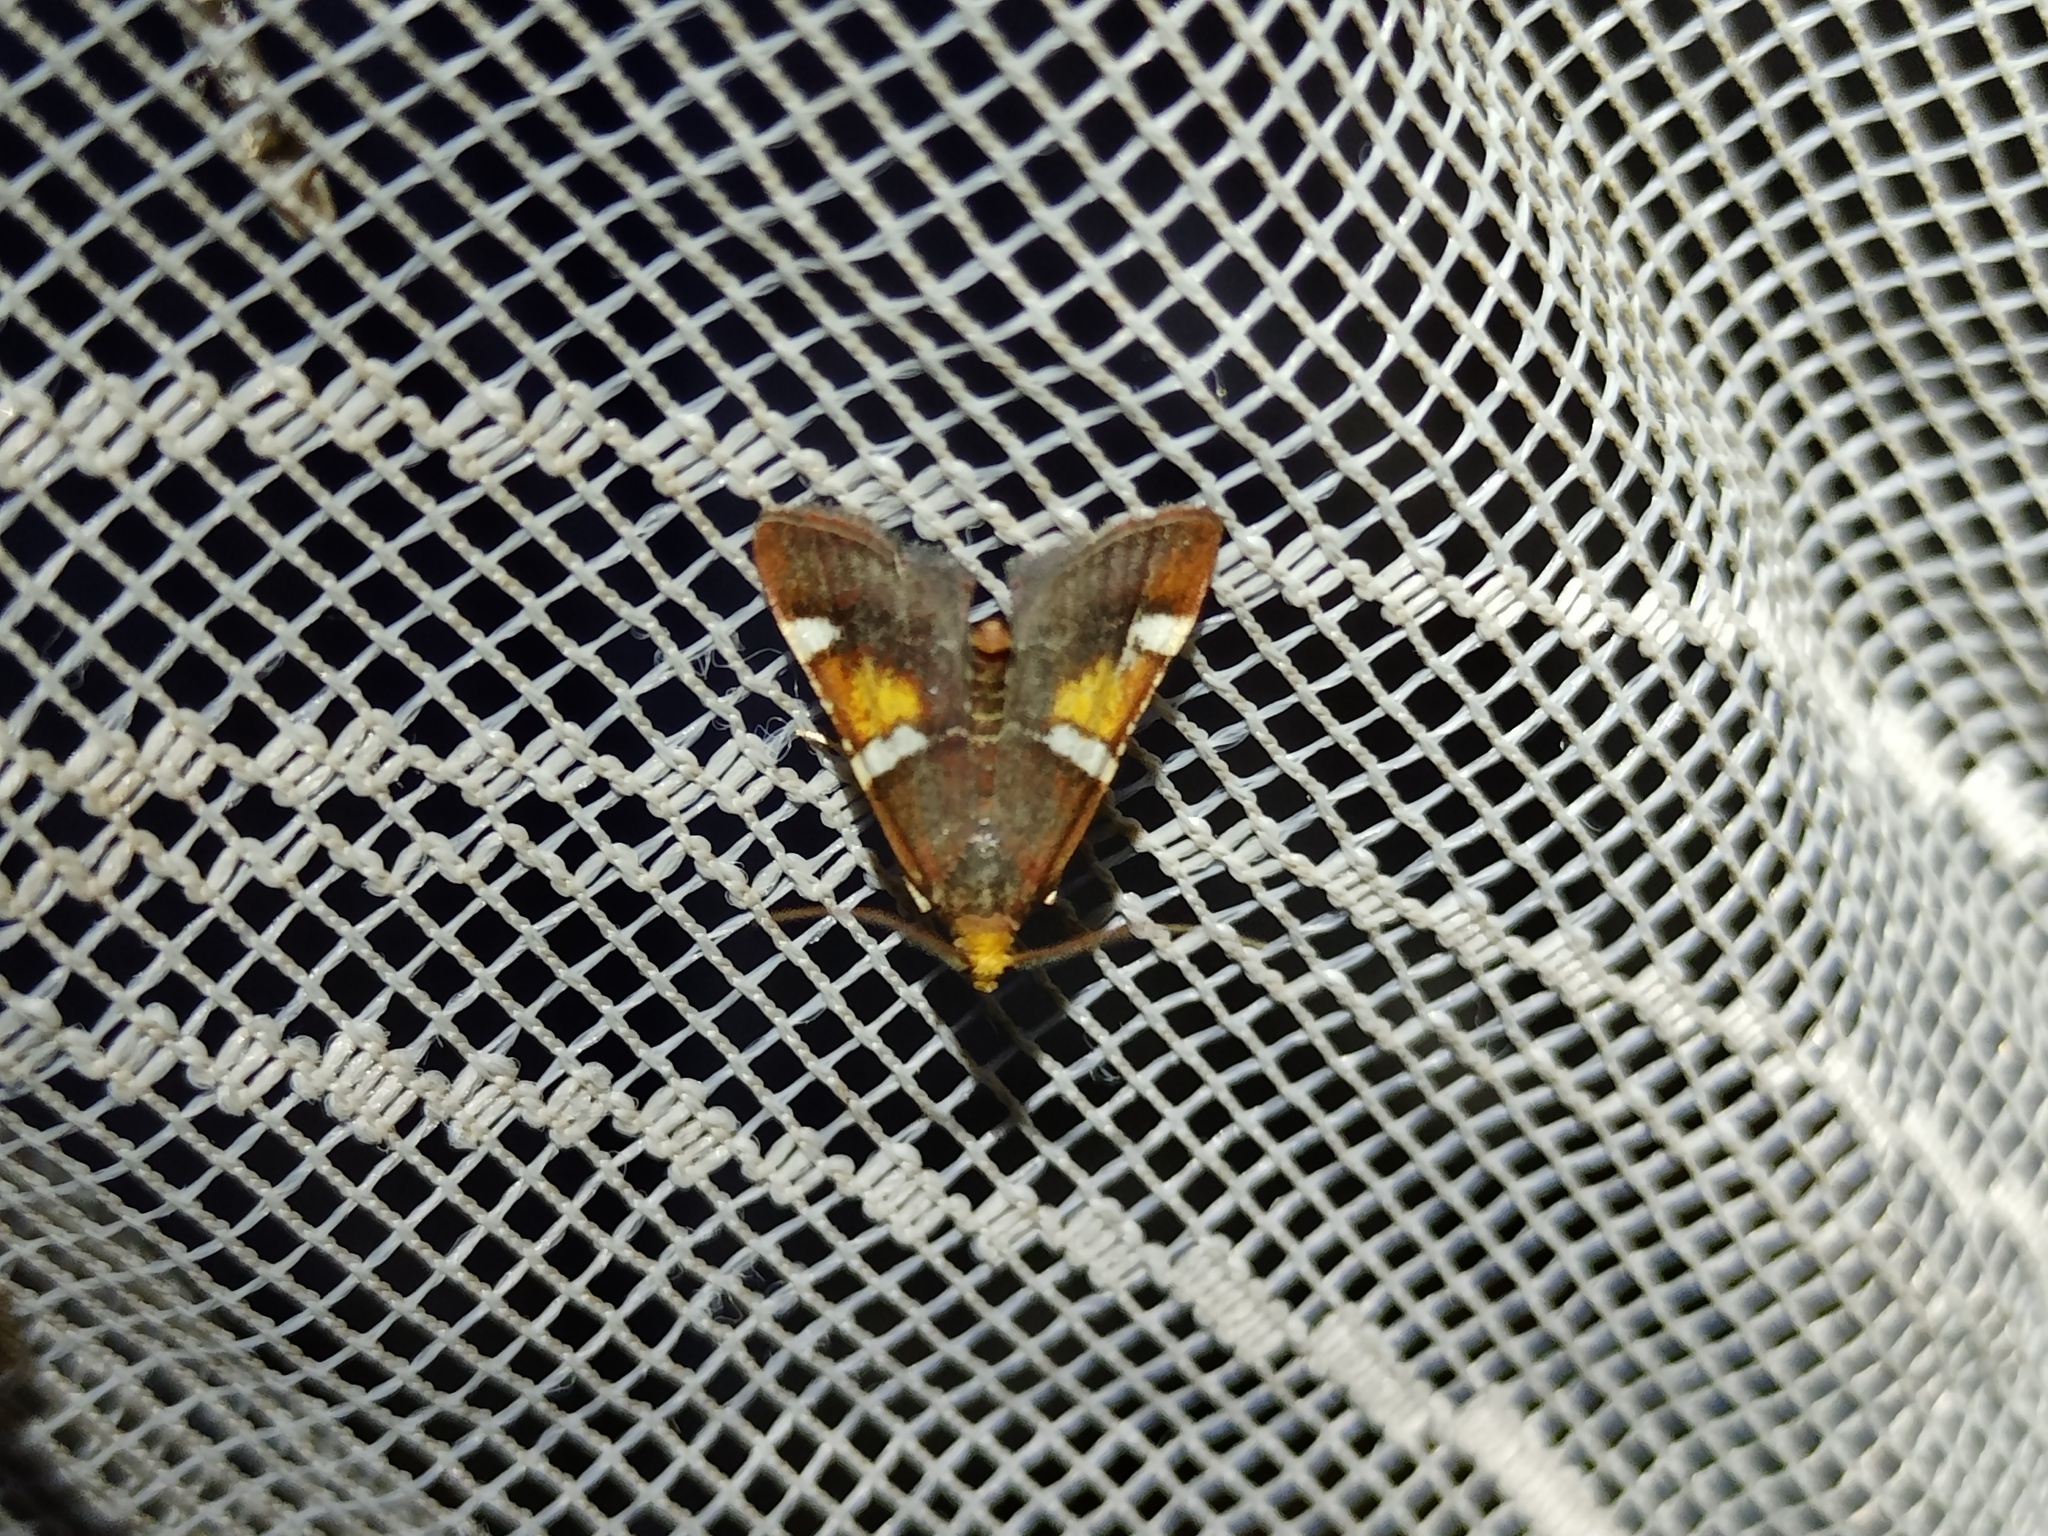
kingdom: Animalia
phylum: Arthropoda
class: Insecta
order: Lepidoptera
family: Pyralidae
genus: Pyralis
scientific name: Pyralis regalis
